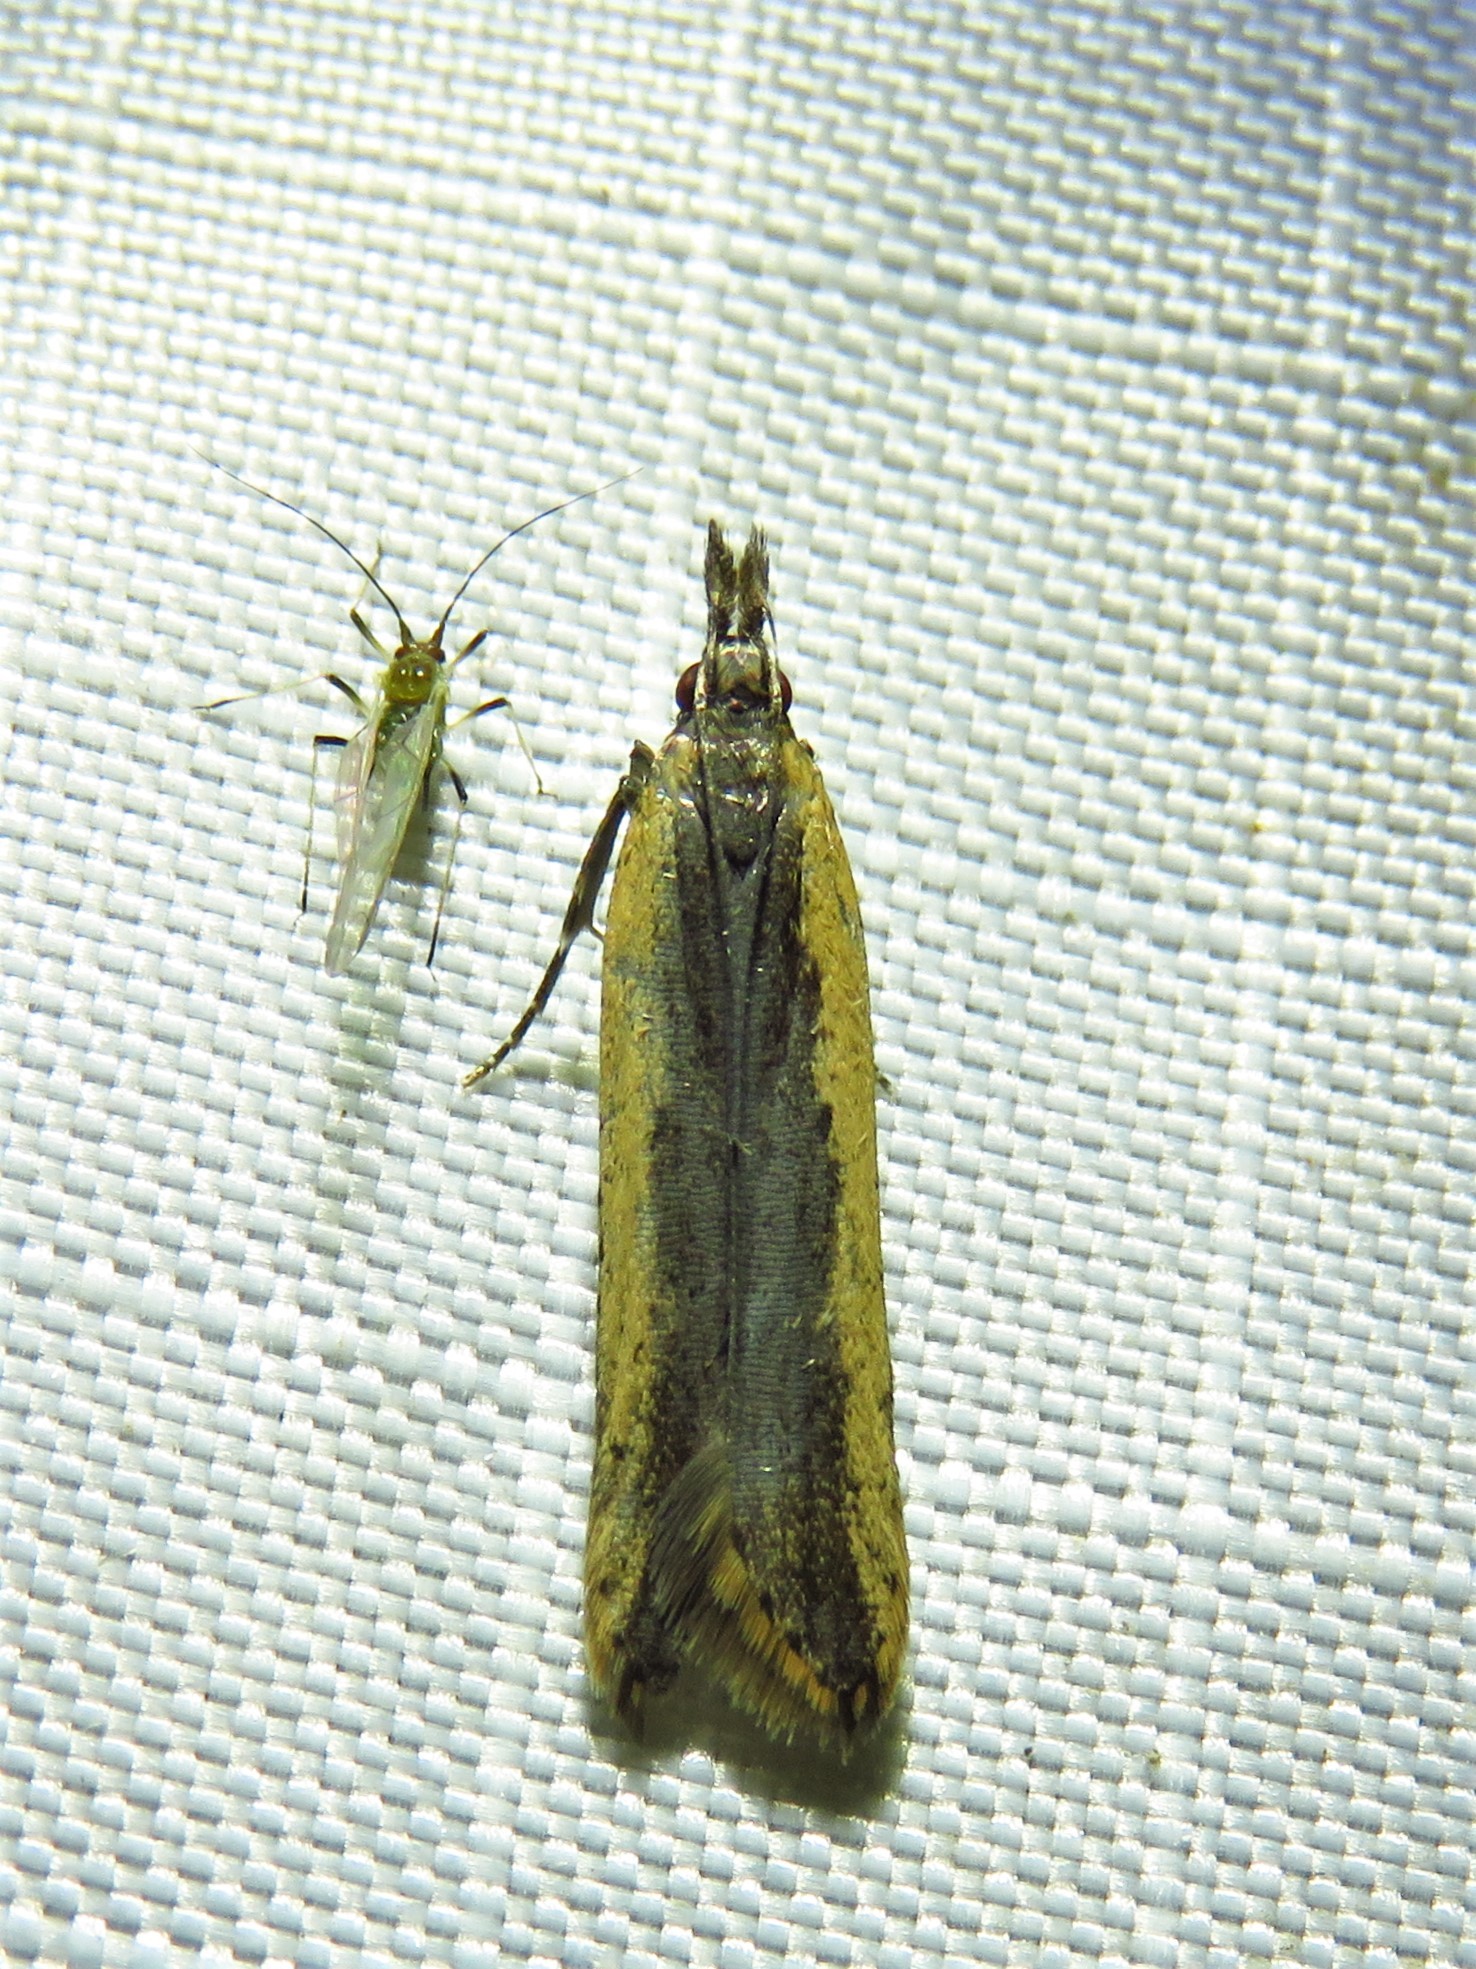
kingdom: Animalia
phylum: Arthropoda
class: Insecta
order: Lepidoptera
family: Gelechiidae
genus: Dichomeris
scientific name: Dichomeris ligulella
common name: Moth
